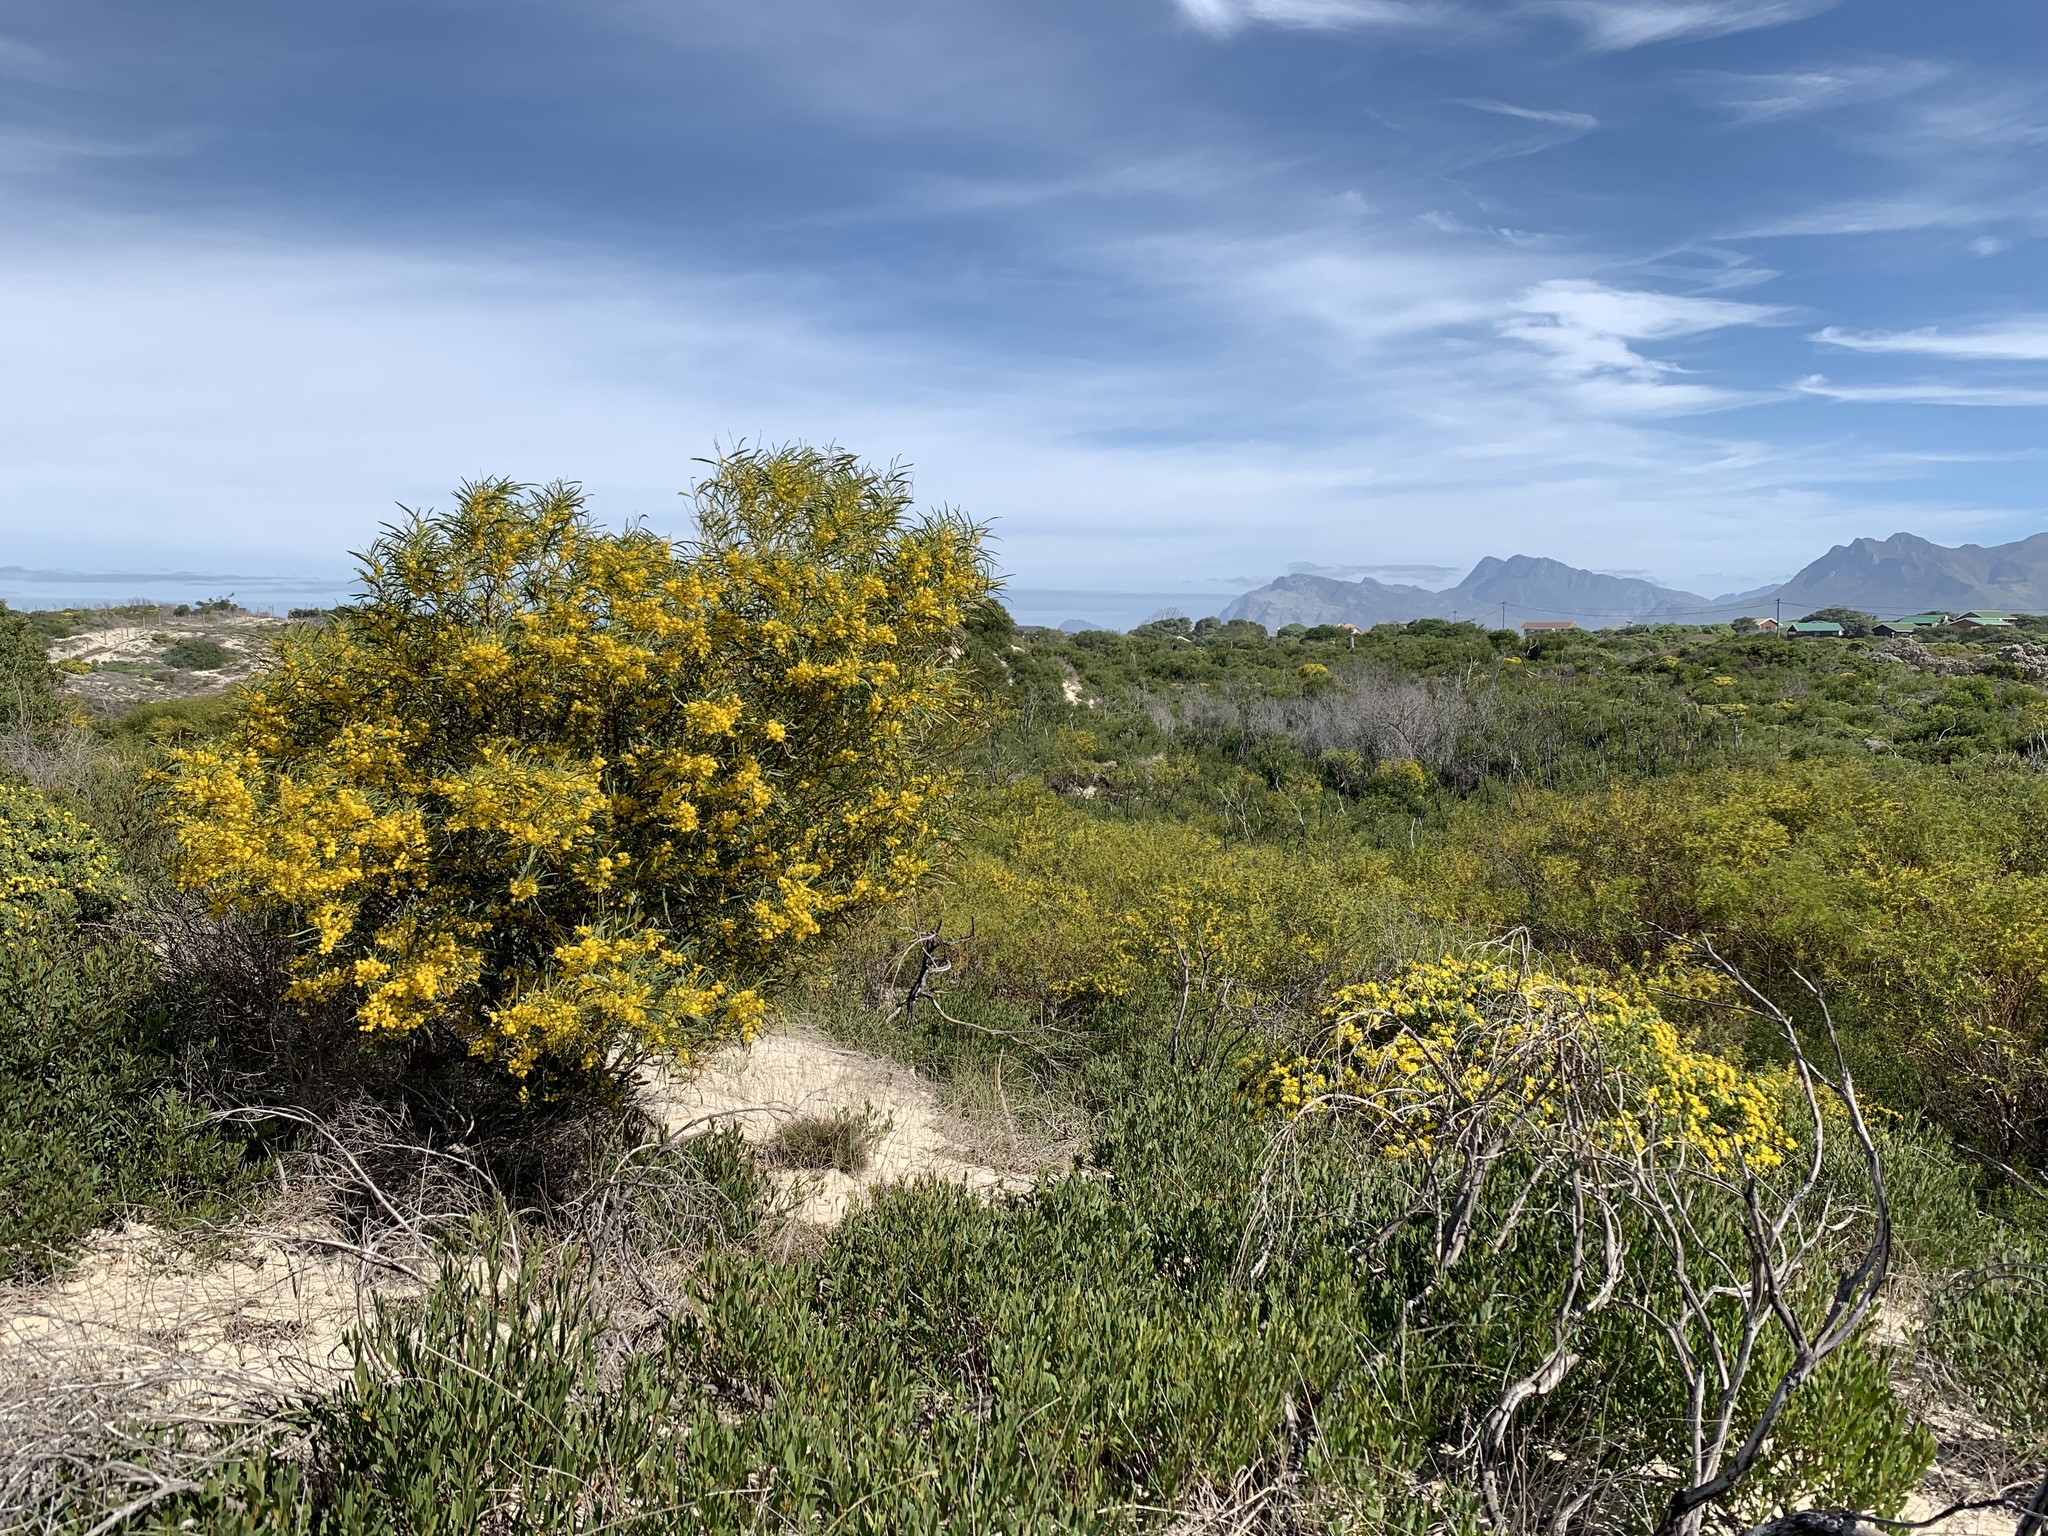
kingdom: Plantae
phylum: Tracheophyta
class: Magnoliopsida
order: Fabales
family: Fabaceae
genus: Acacia
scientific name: Acacia saligna
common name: Orange wattle
